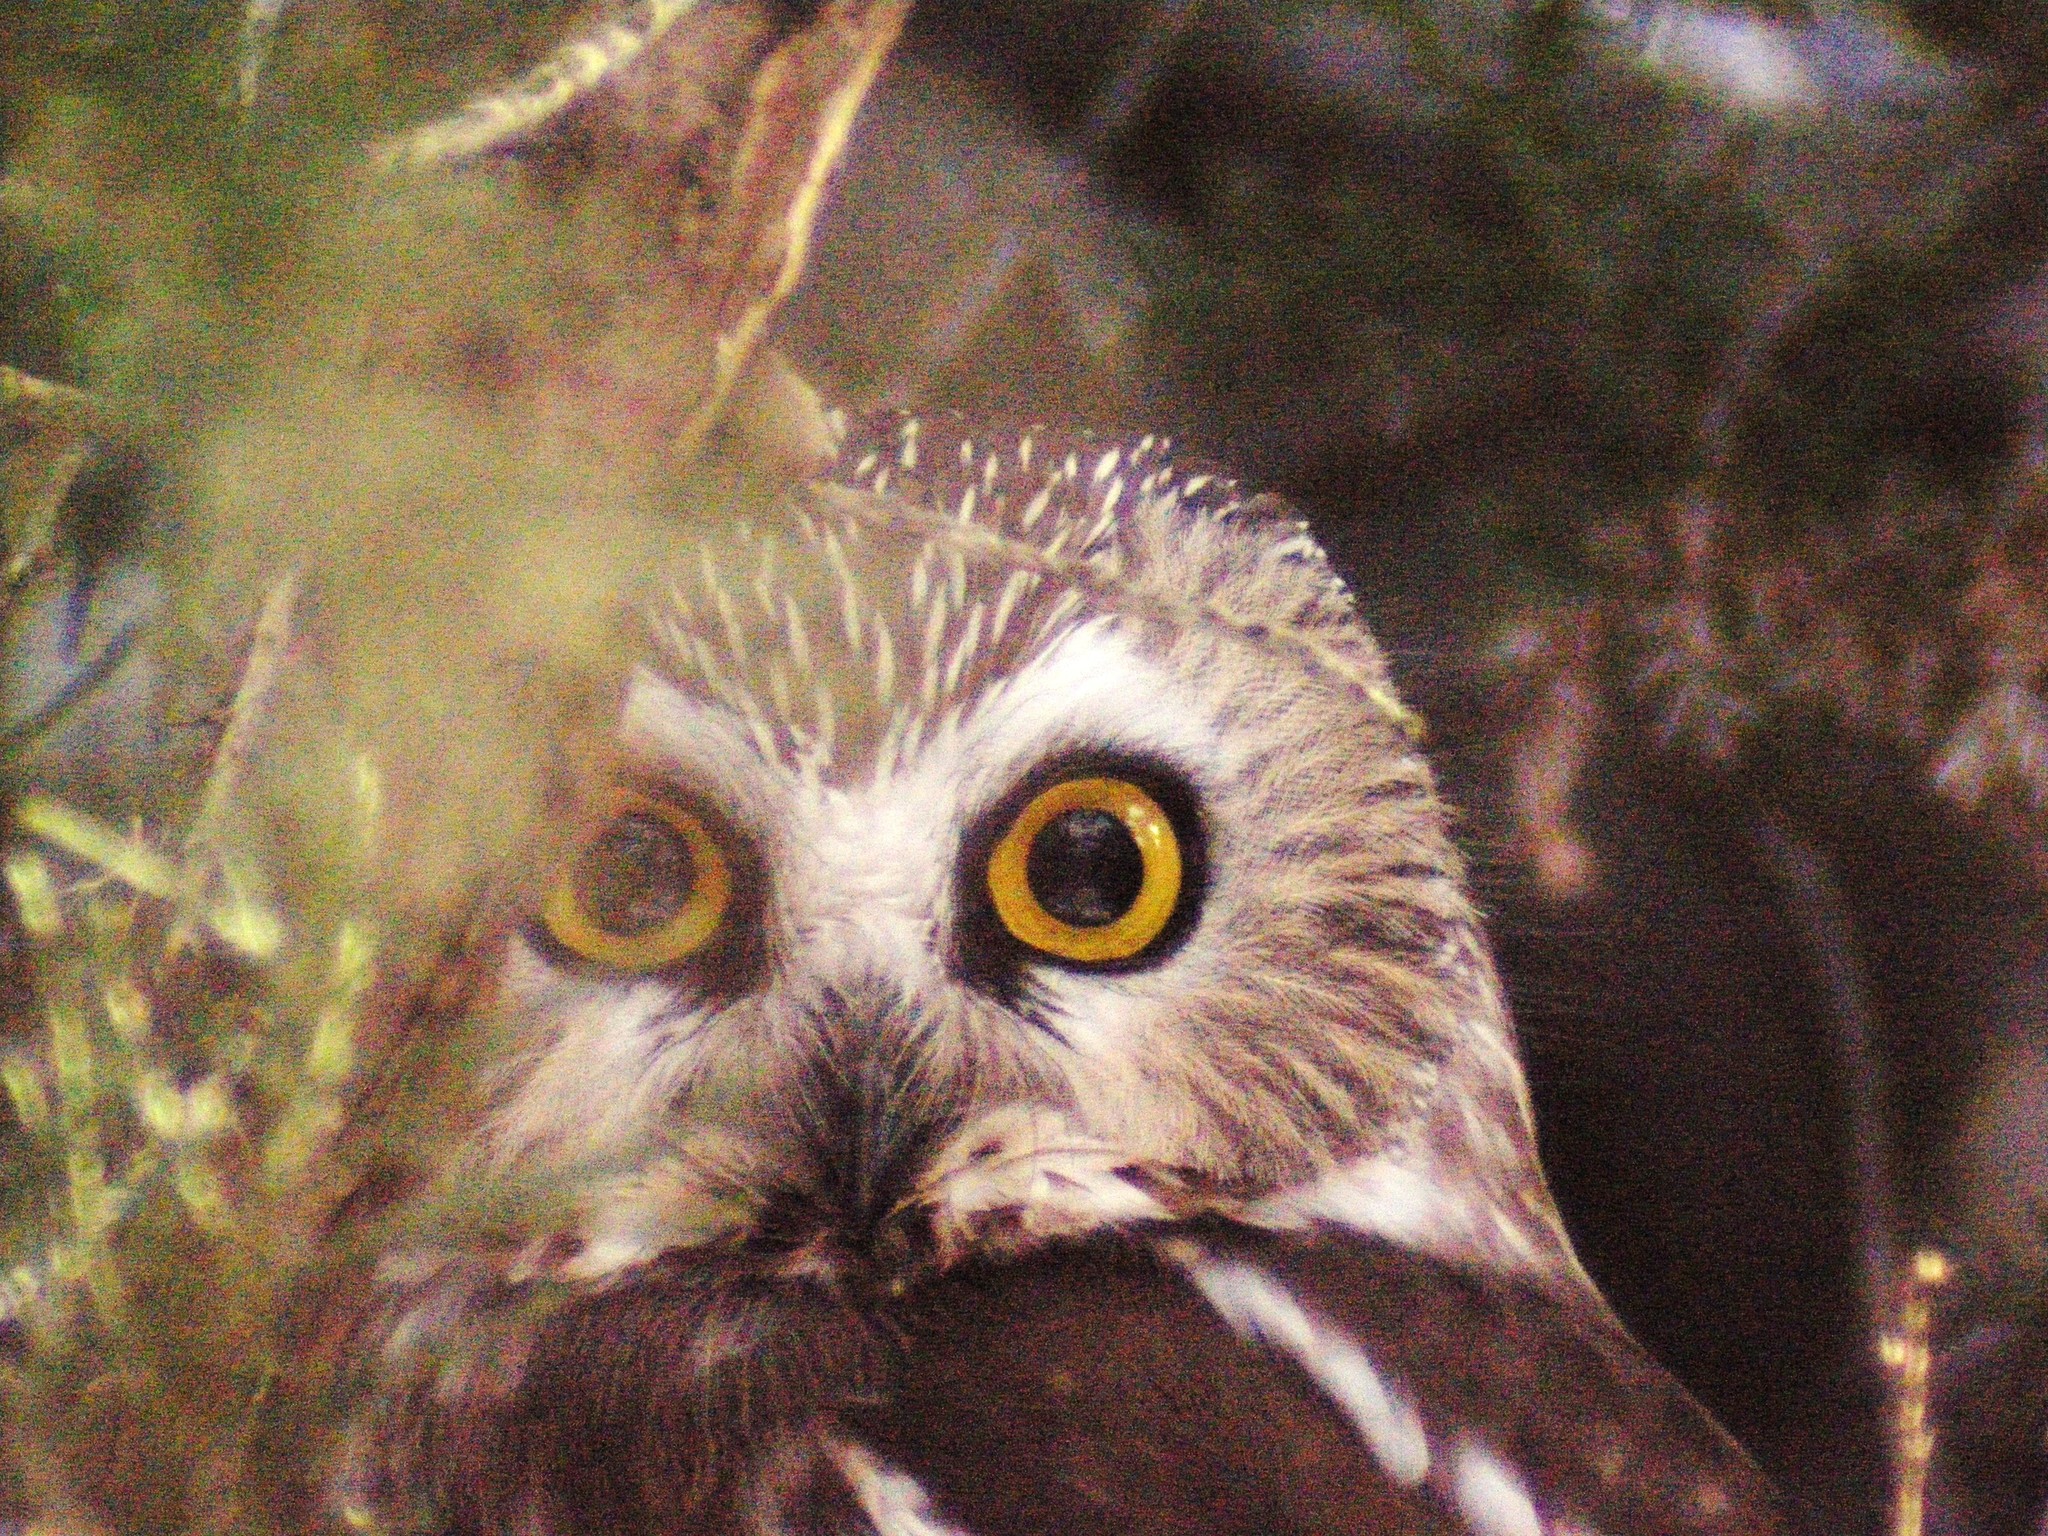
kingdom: Animalia
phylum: Chordata
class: Aves
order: Strigiformes
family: Strigidae
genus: Aegolius
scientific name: Aegolius acadicus
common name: Northern saw-whet owl
